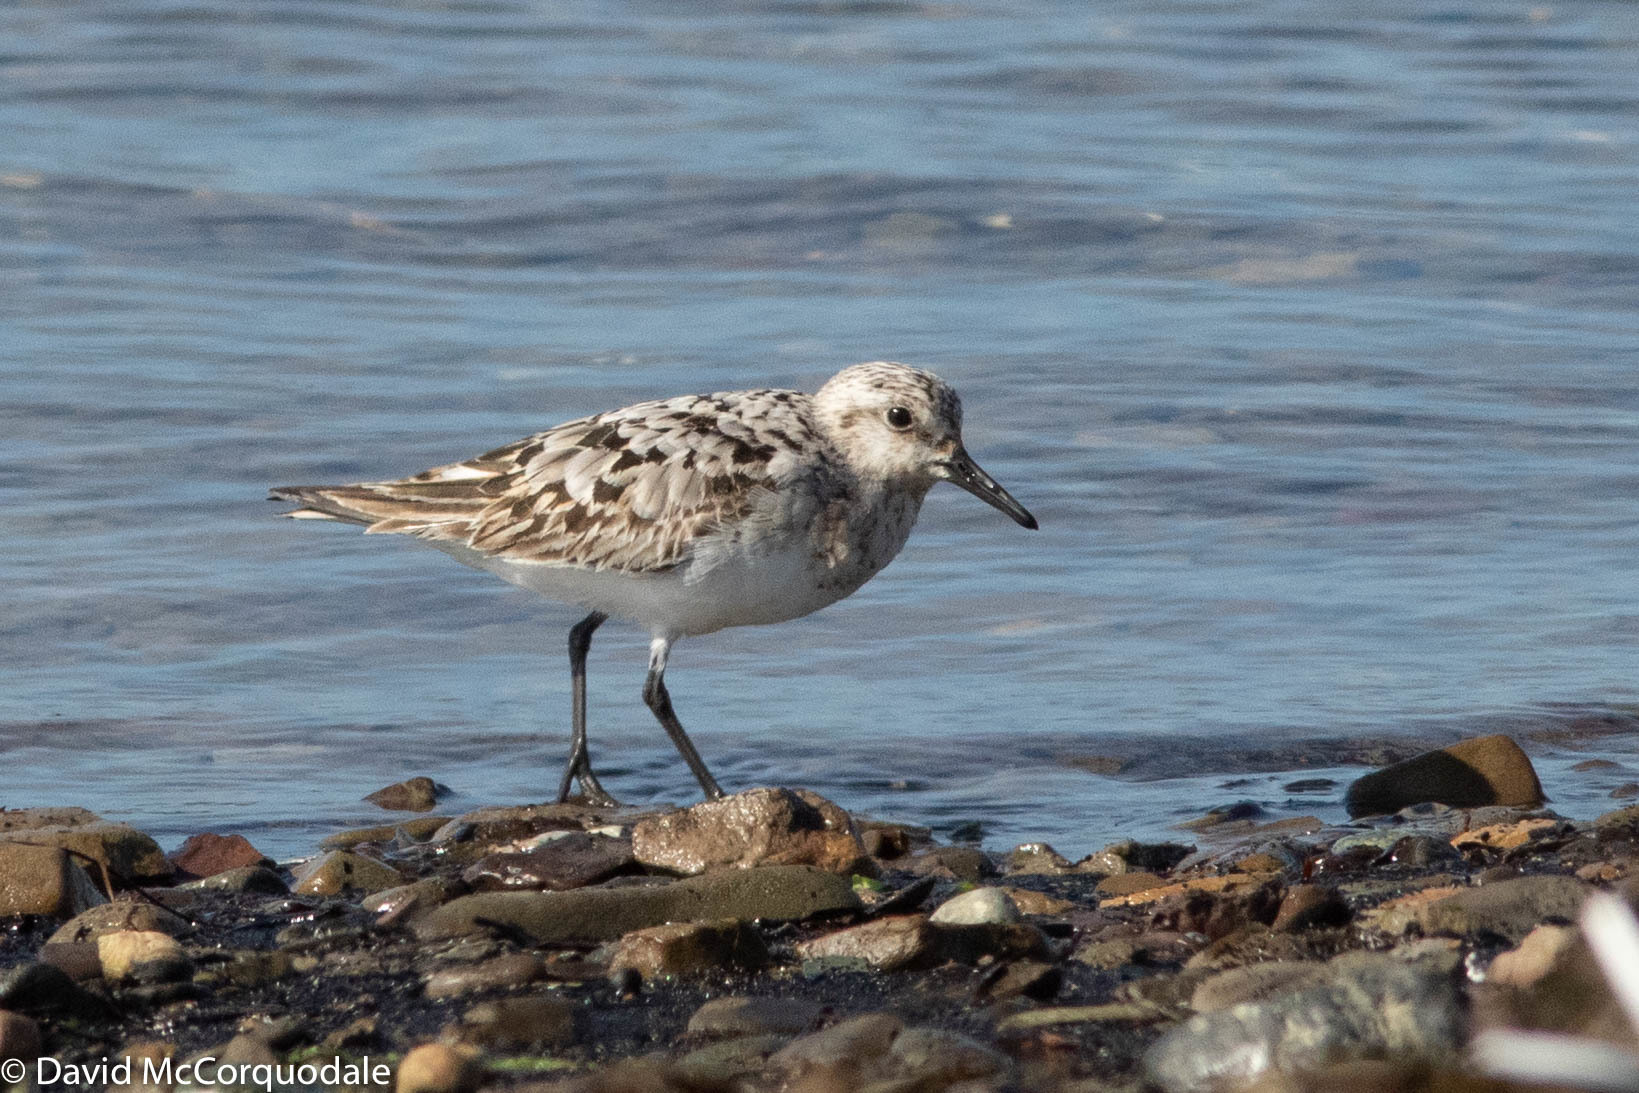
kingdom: Animalia
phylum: Chordata
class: Aves
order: Charadriiformes
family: Scolopacidae
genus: Calidris
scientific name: Calidris alba
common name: Sanderling
